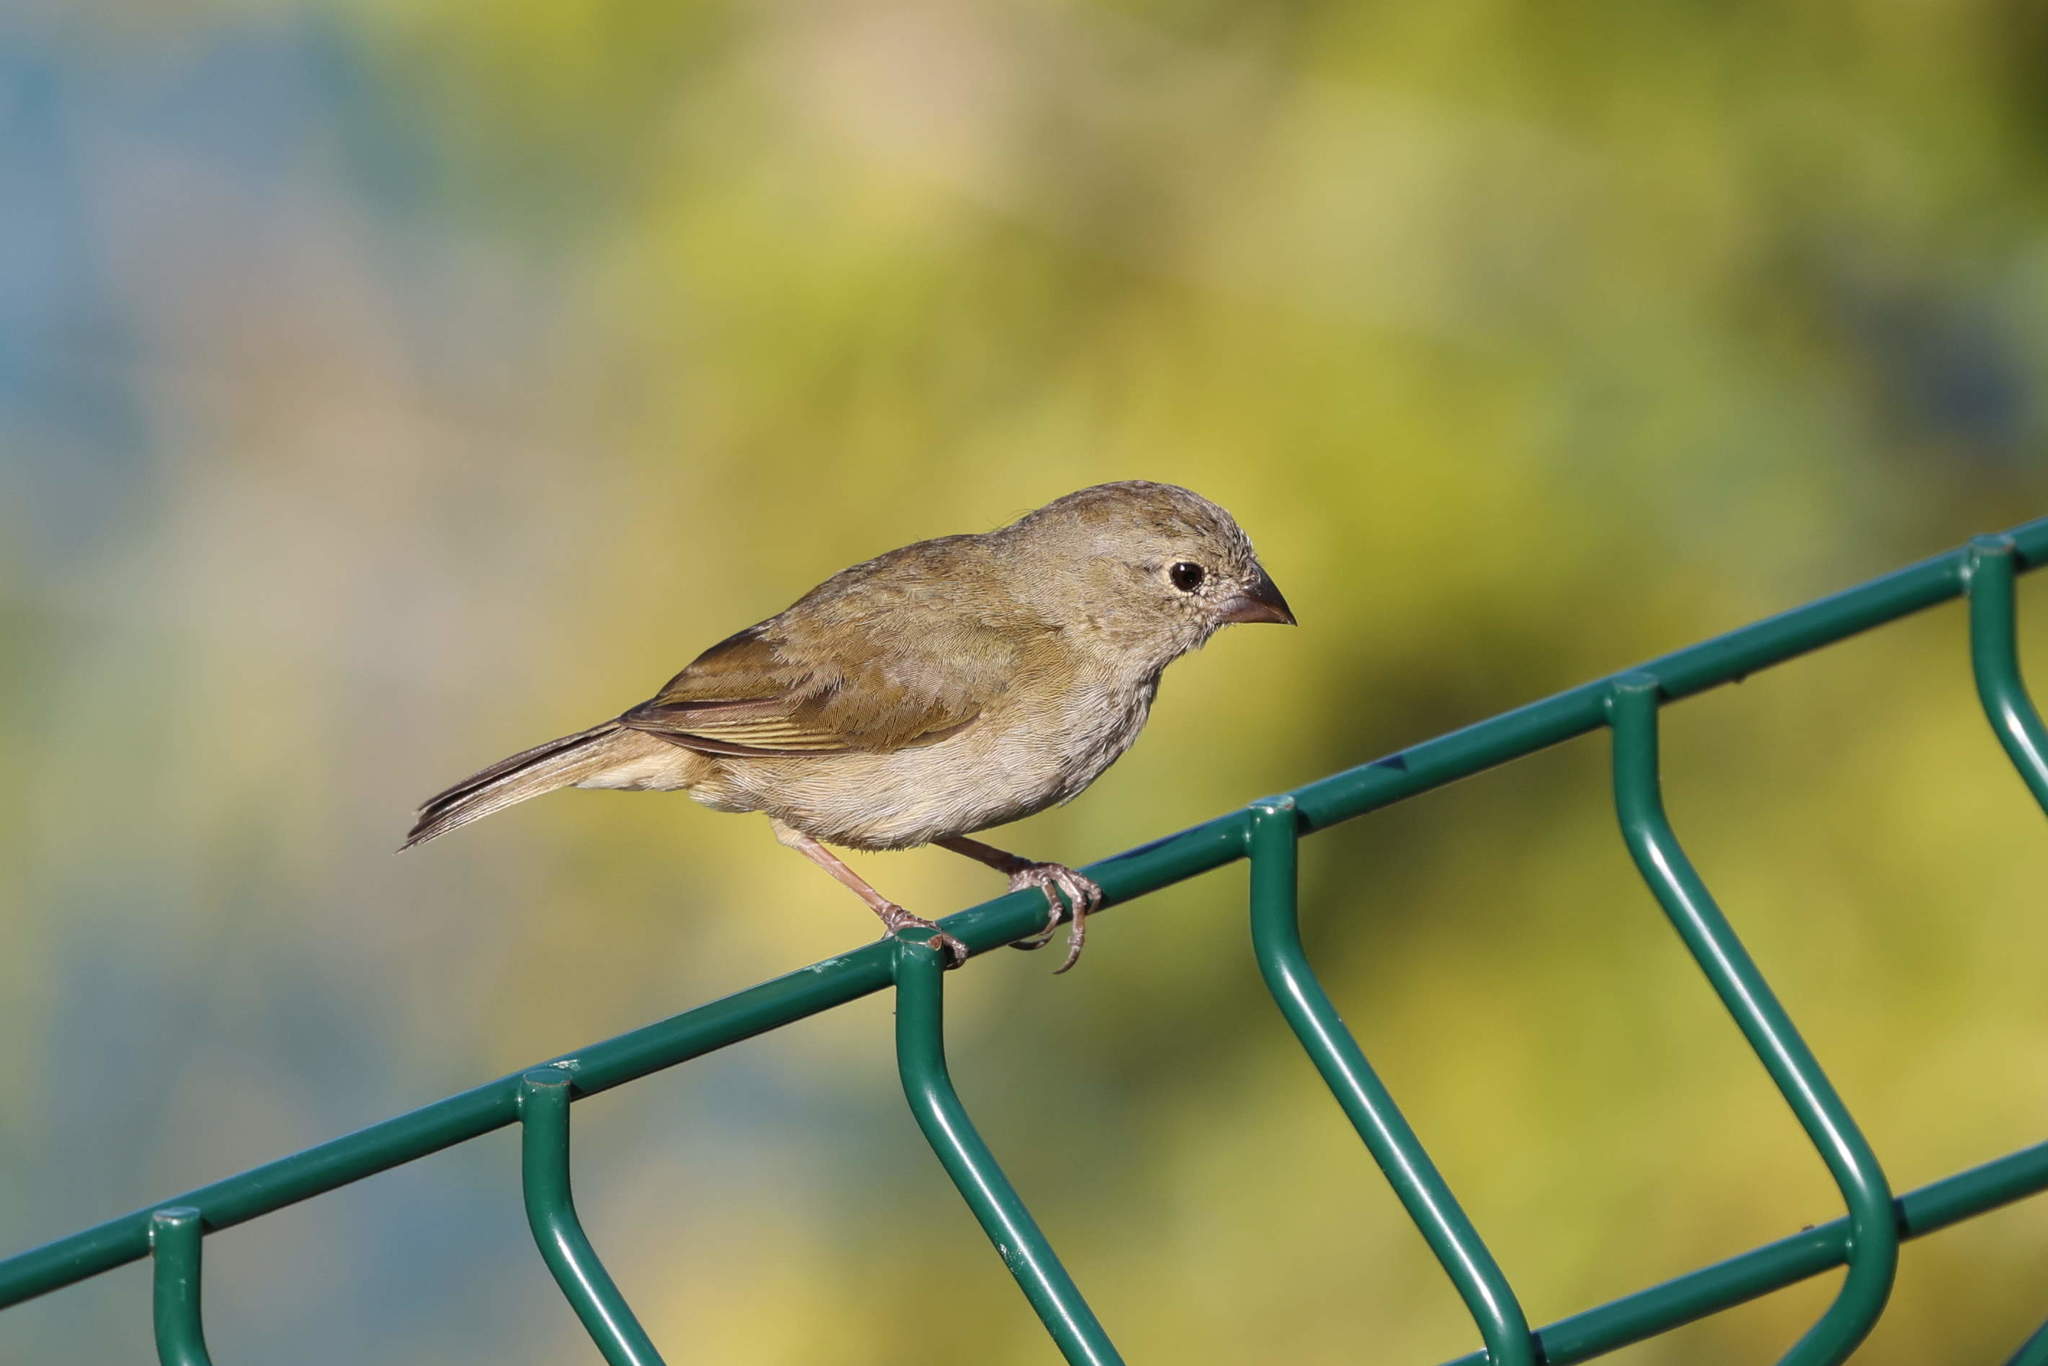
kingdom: Animalia
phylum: Chordata
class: Aves
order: Passeriformes
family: Thraupidae
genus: Melanospiza
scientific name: Melanospiza bicolor
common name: Black-faced grassquit
